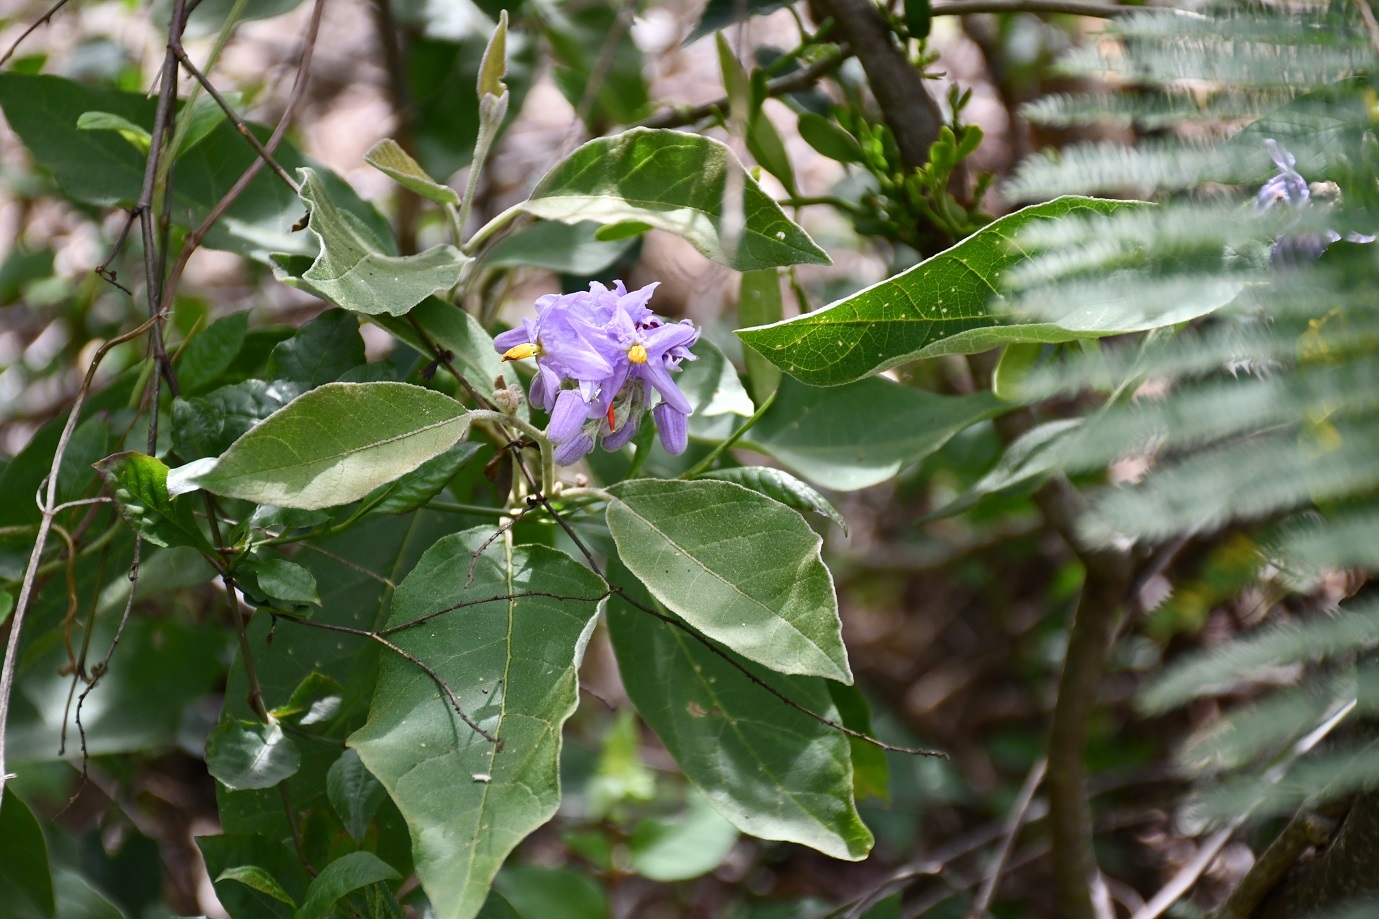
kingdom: Plantae
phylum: Tracheophyta
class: Magnoliopsida
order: Solanales
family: Solanaceae
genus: Solanum
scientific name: Solanum lanceolatum
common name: Orangeberry nightshade
